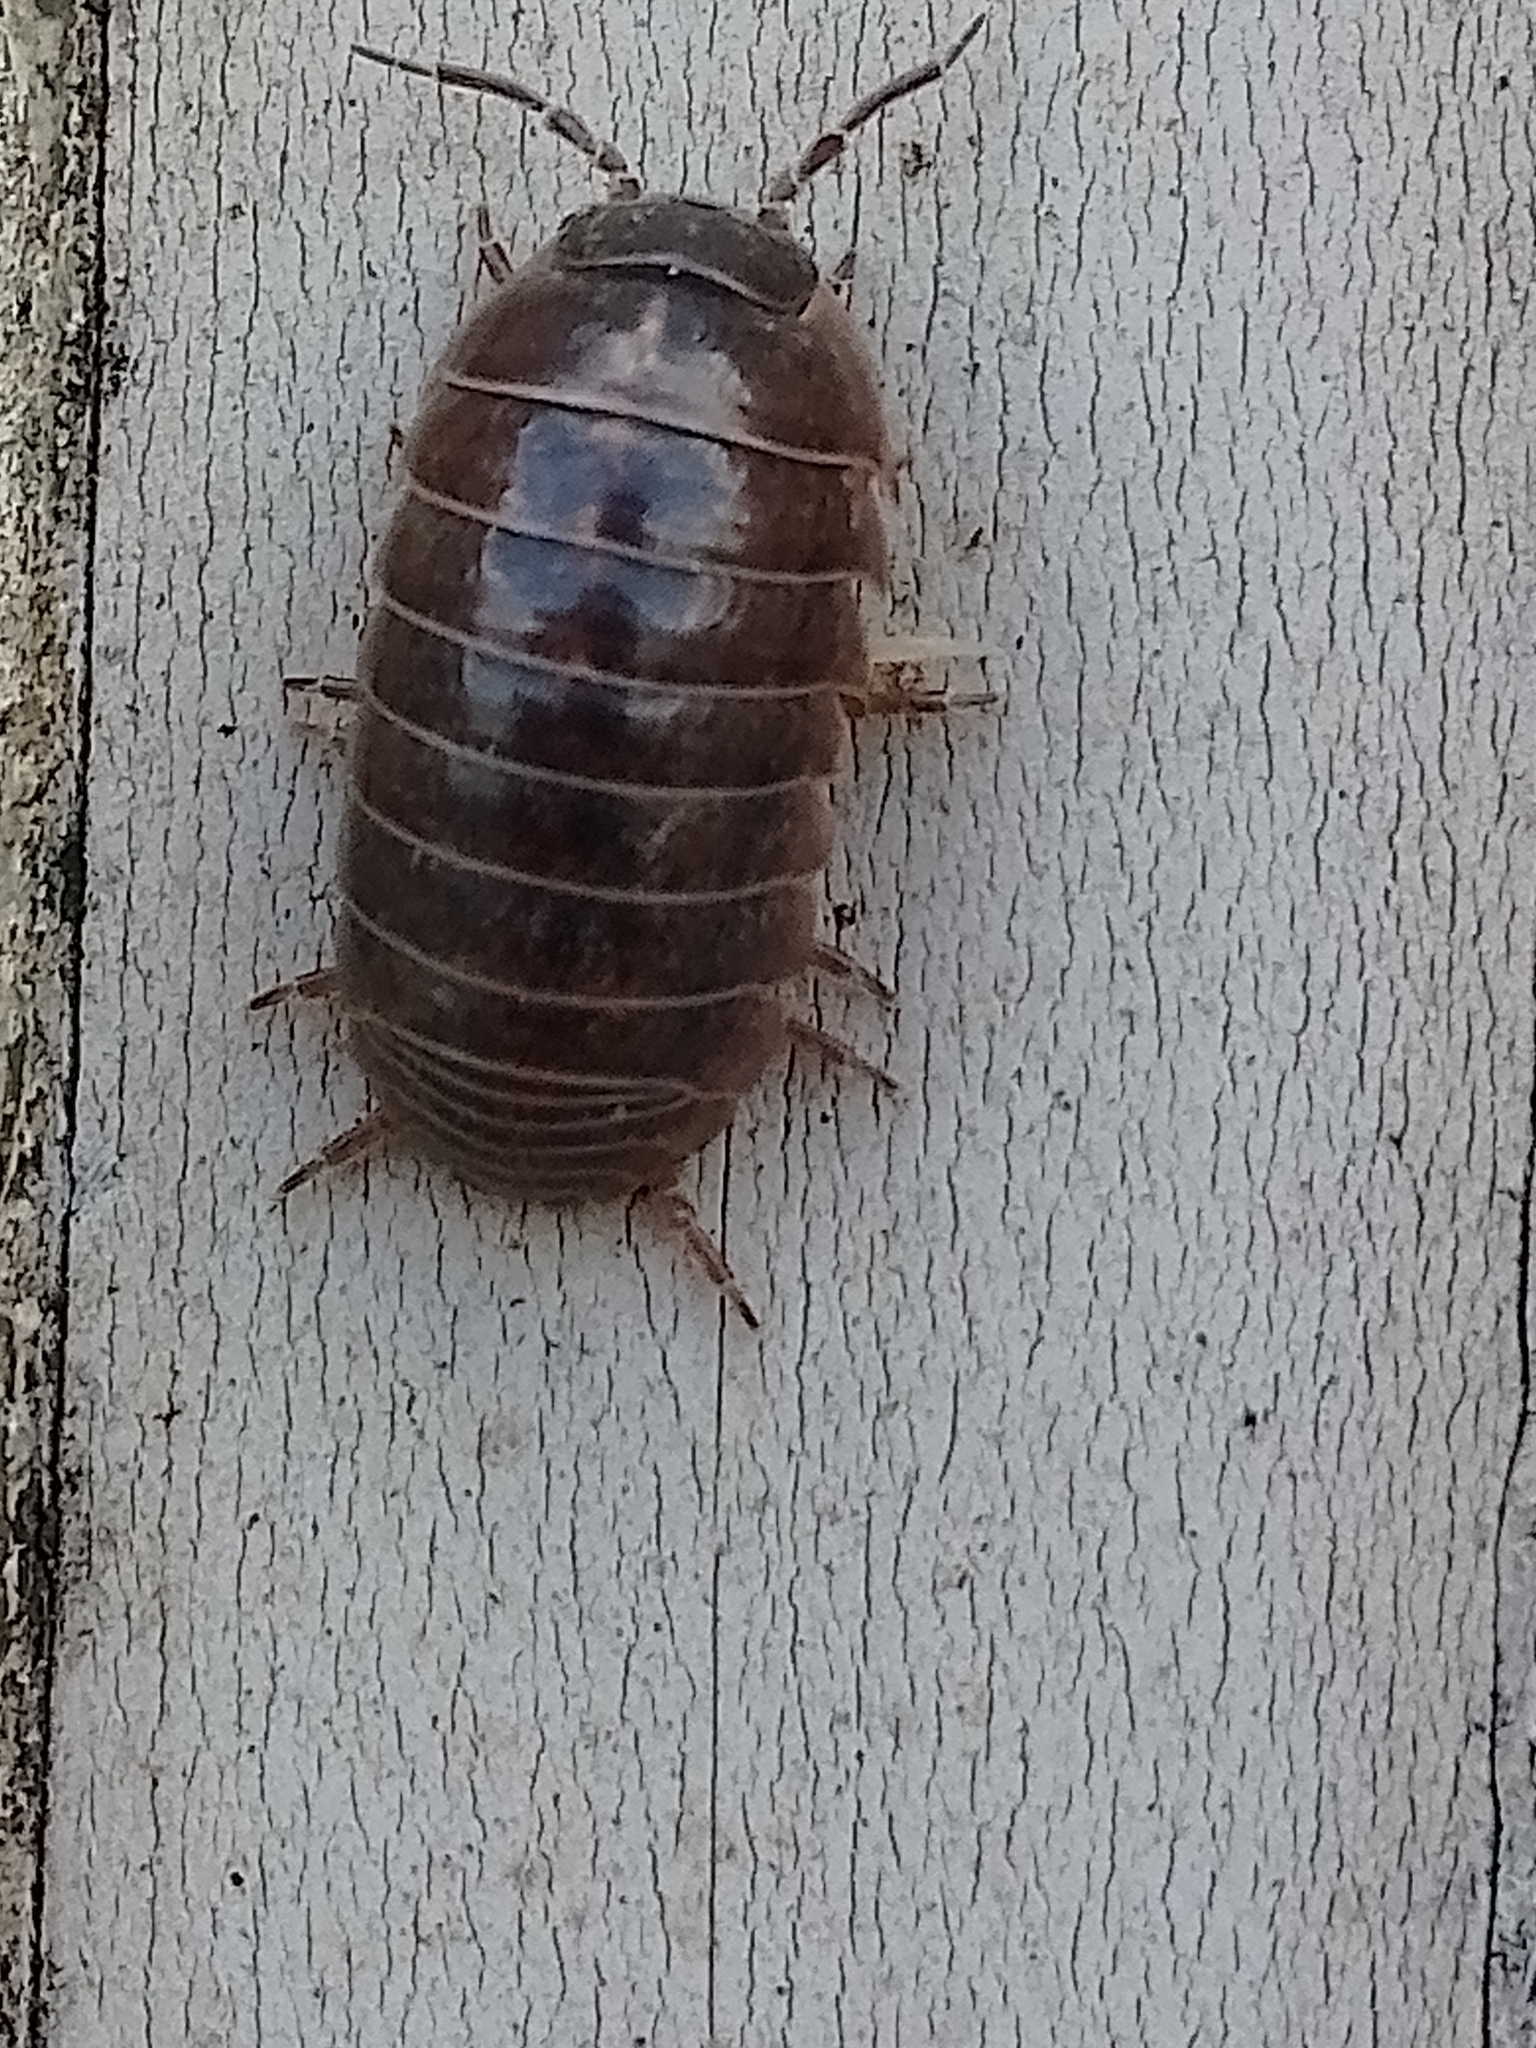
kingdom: Animalia
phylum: Arthropoda
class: Malacostraca
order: Isopoda
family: Armadillidiidae
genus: Armadillidium
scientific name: Armadillidium vulgare
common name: Common pill woodlouse
